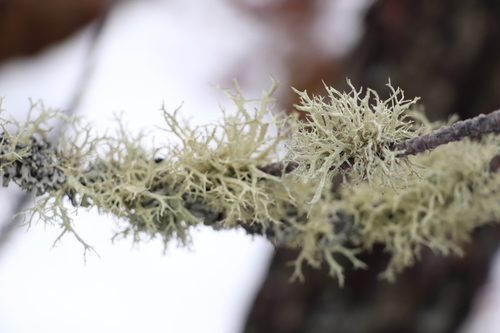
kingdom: Fungi
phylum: Ascomycota
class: Lecanoromycetes
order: Lecanorales
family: Parmeliaceae
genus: Evernia
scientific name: Evernia mesomorpha
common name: Boreal oak moss lichen
